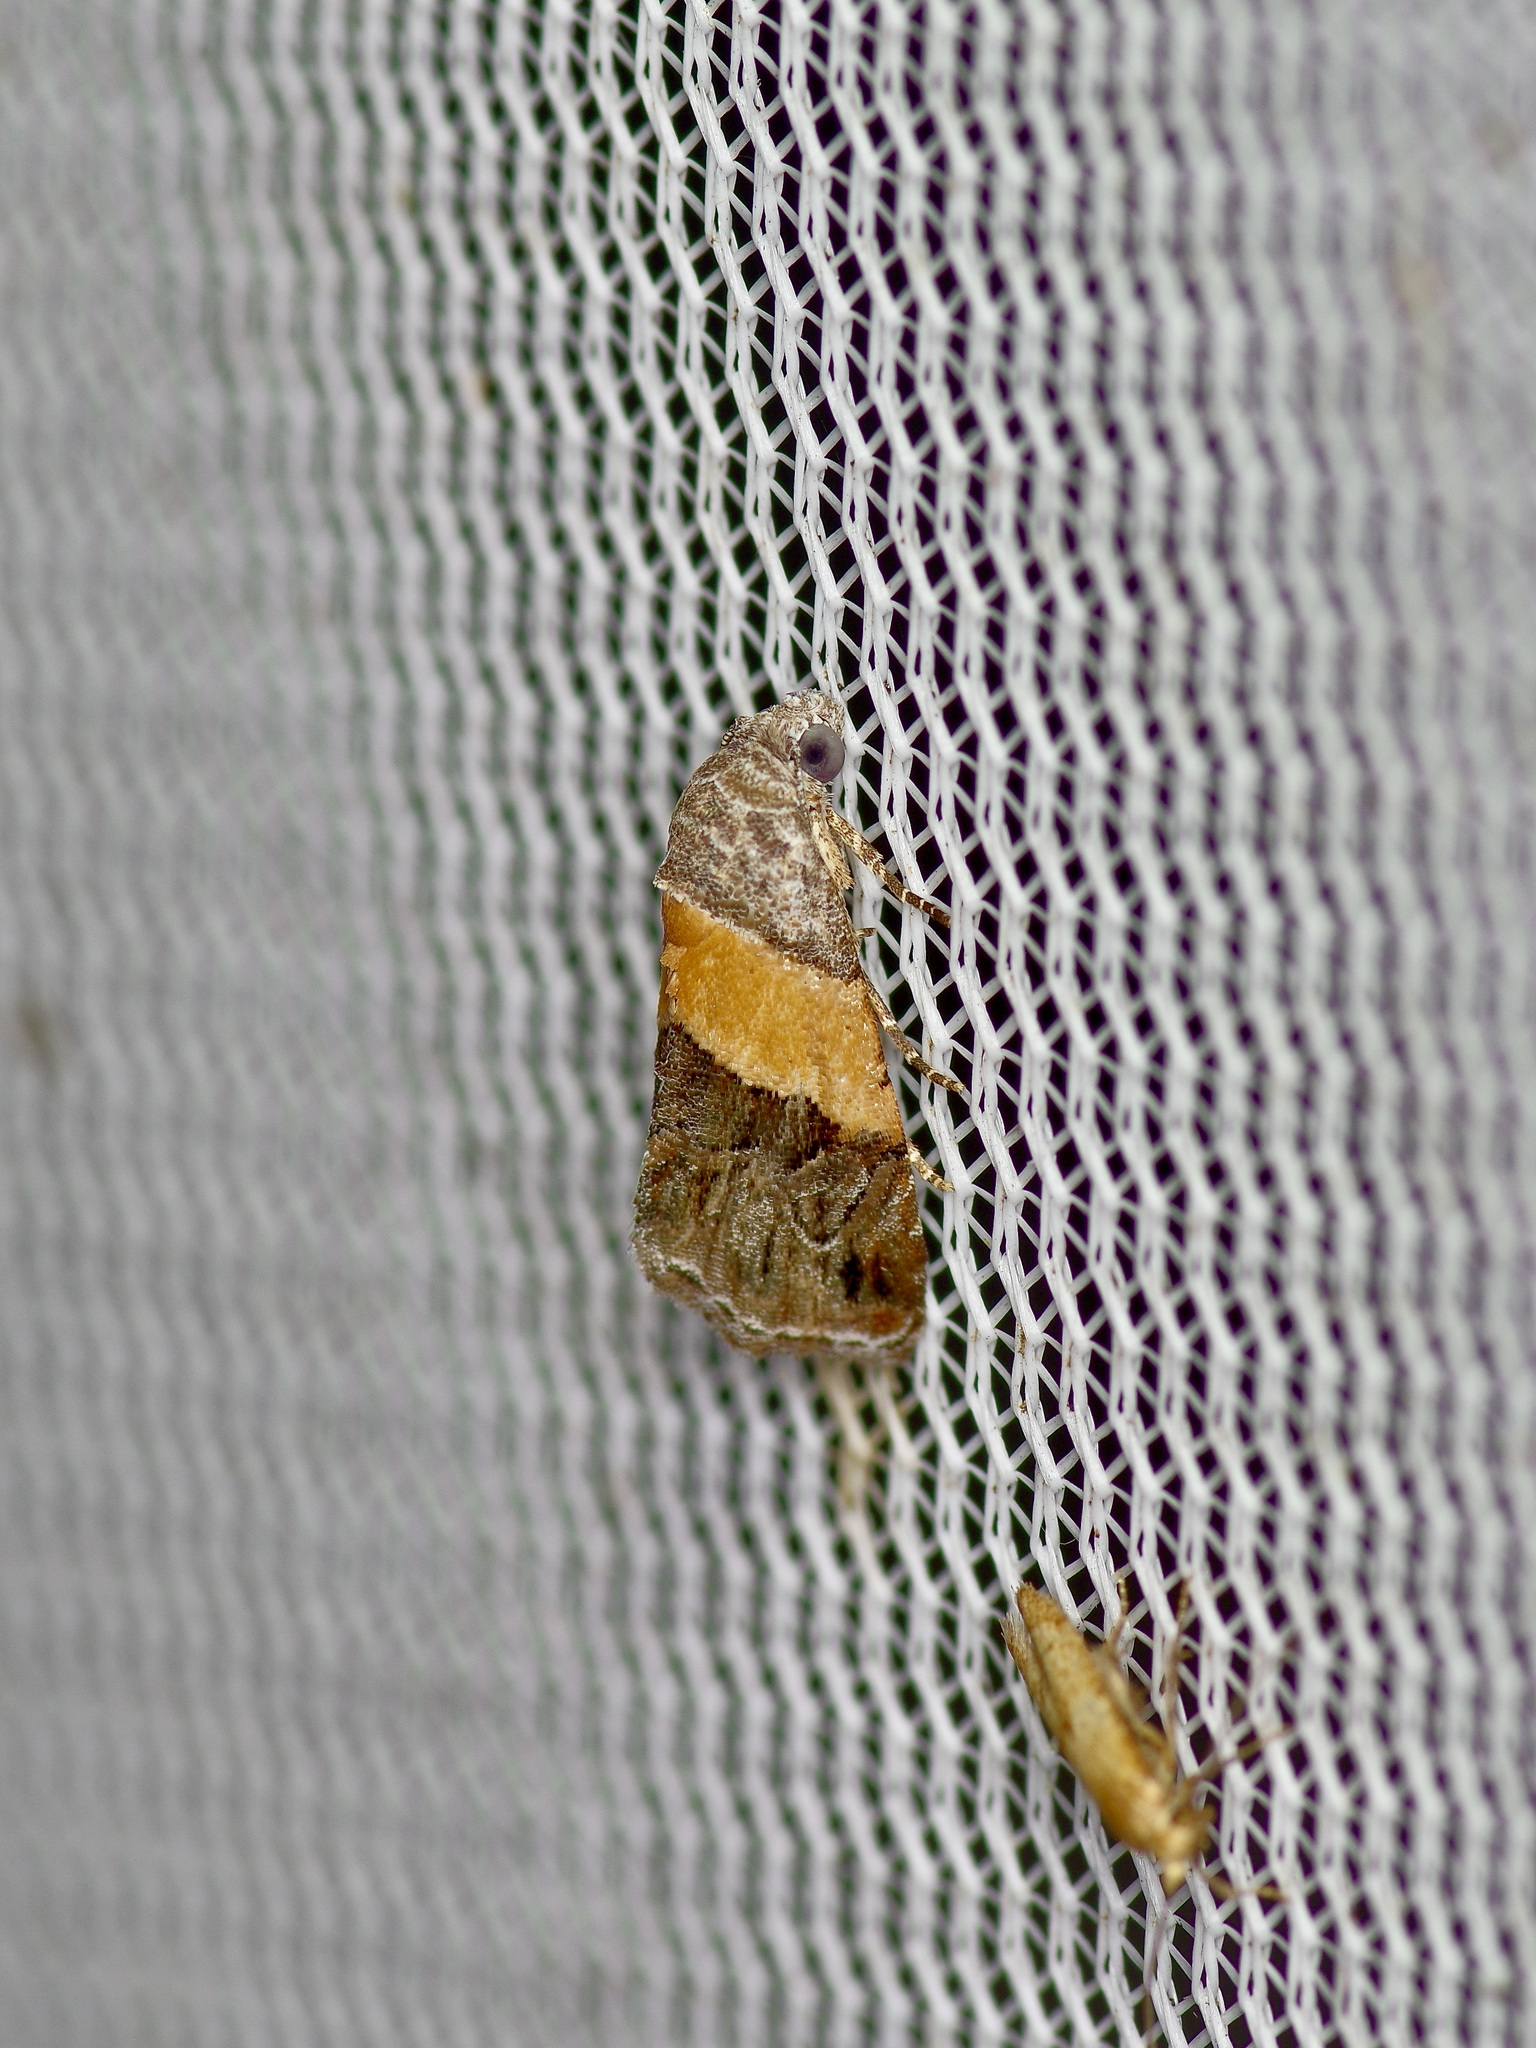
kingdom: Animalia
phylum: Arthropoda
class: Insecta
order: Lepidoptera
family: Noctuidae
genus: Tripudia
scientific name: Tripudia balteata
